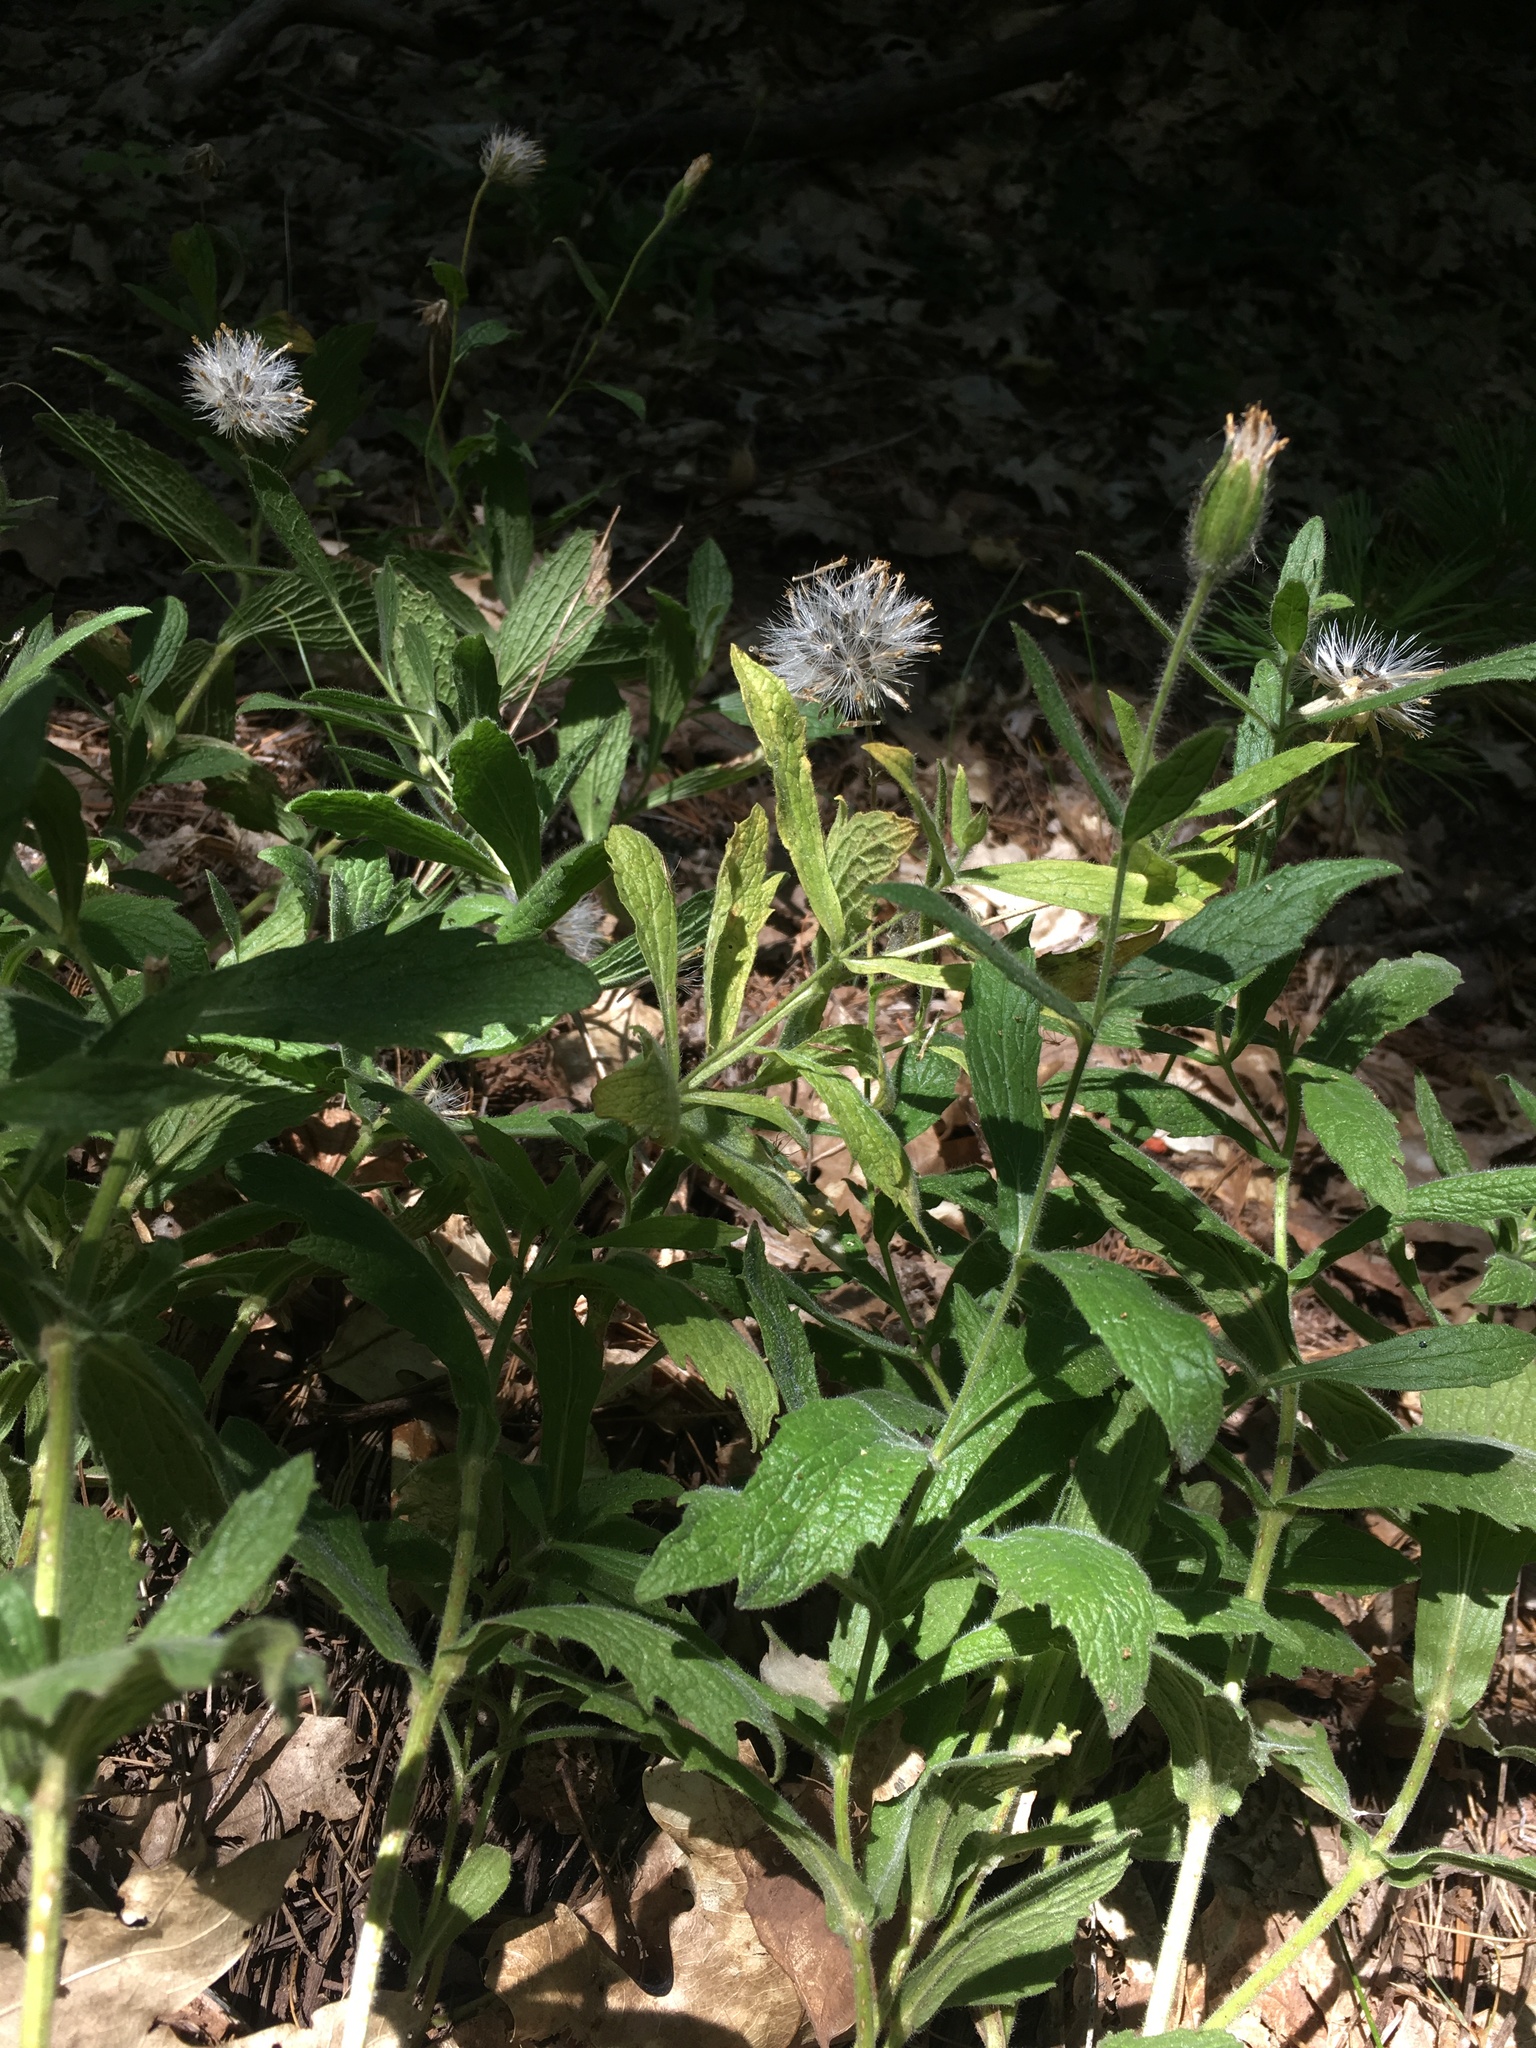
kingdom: Plantae
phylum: Tracheophyta
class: Magnoliopsida
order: Asterales
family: Asteraceae
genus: Arnica
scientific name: Arnica venosa
